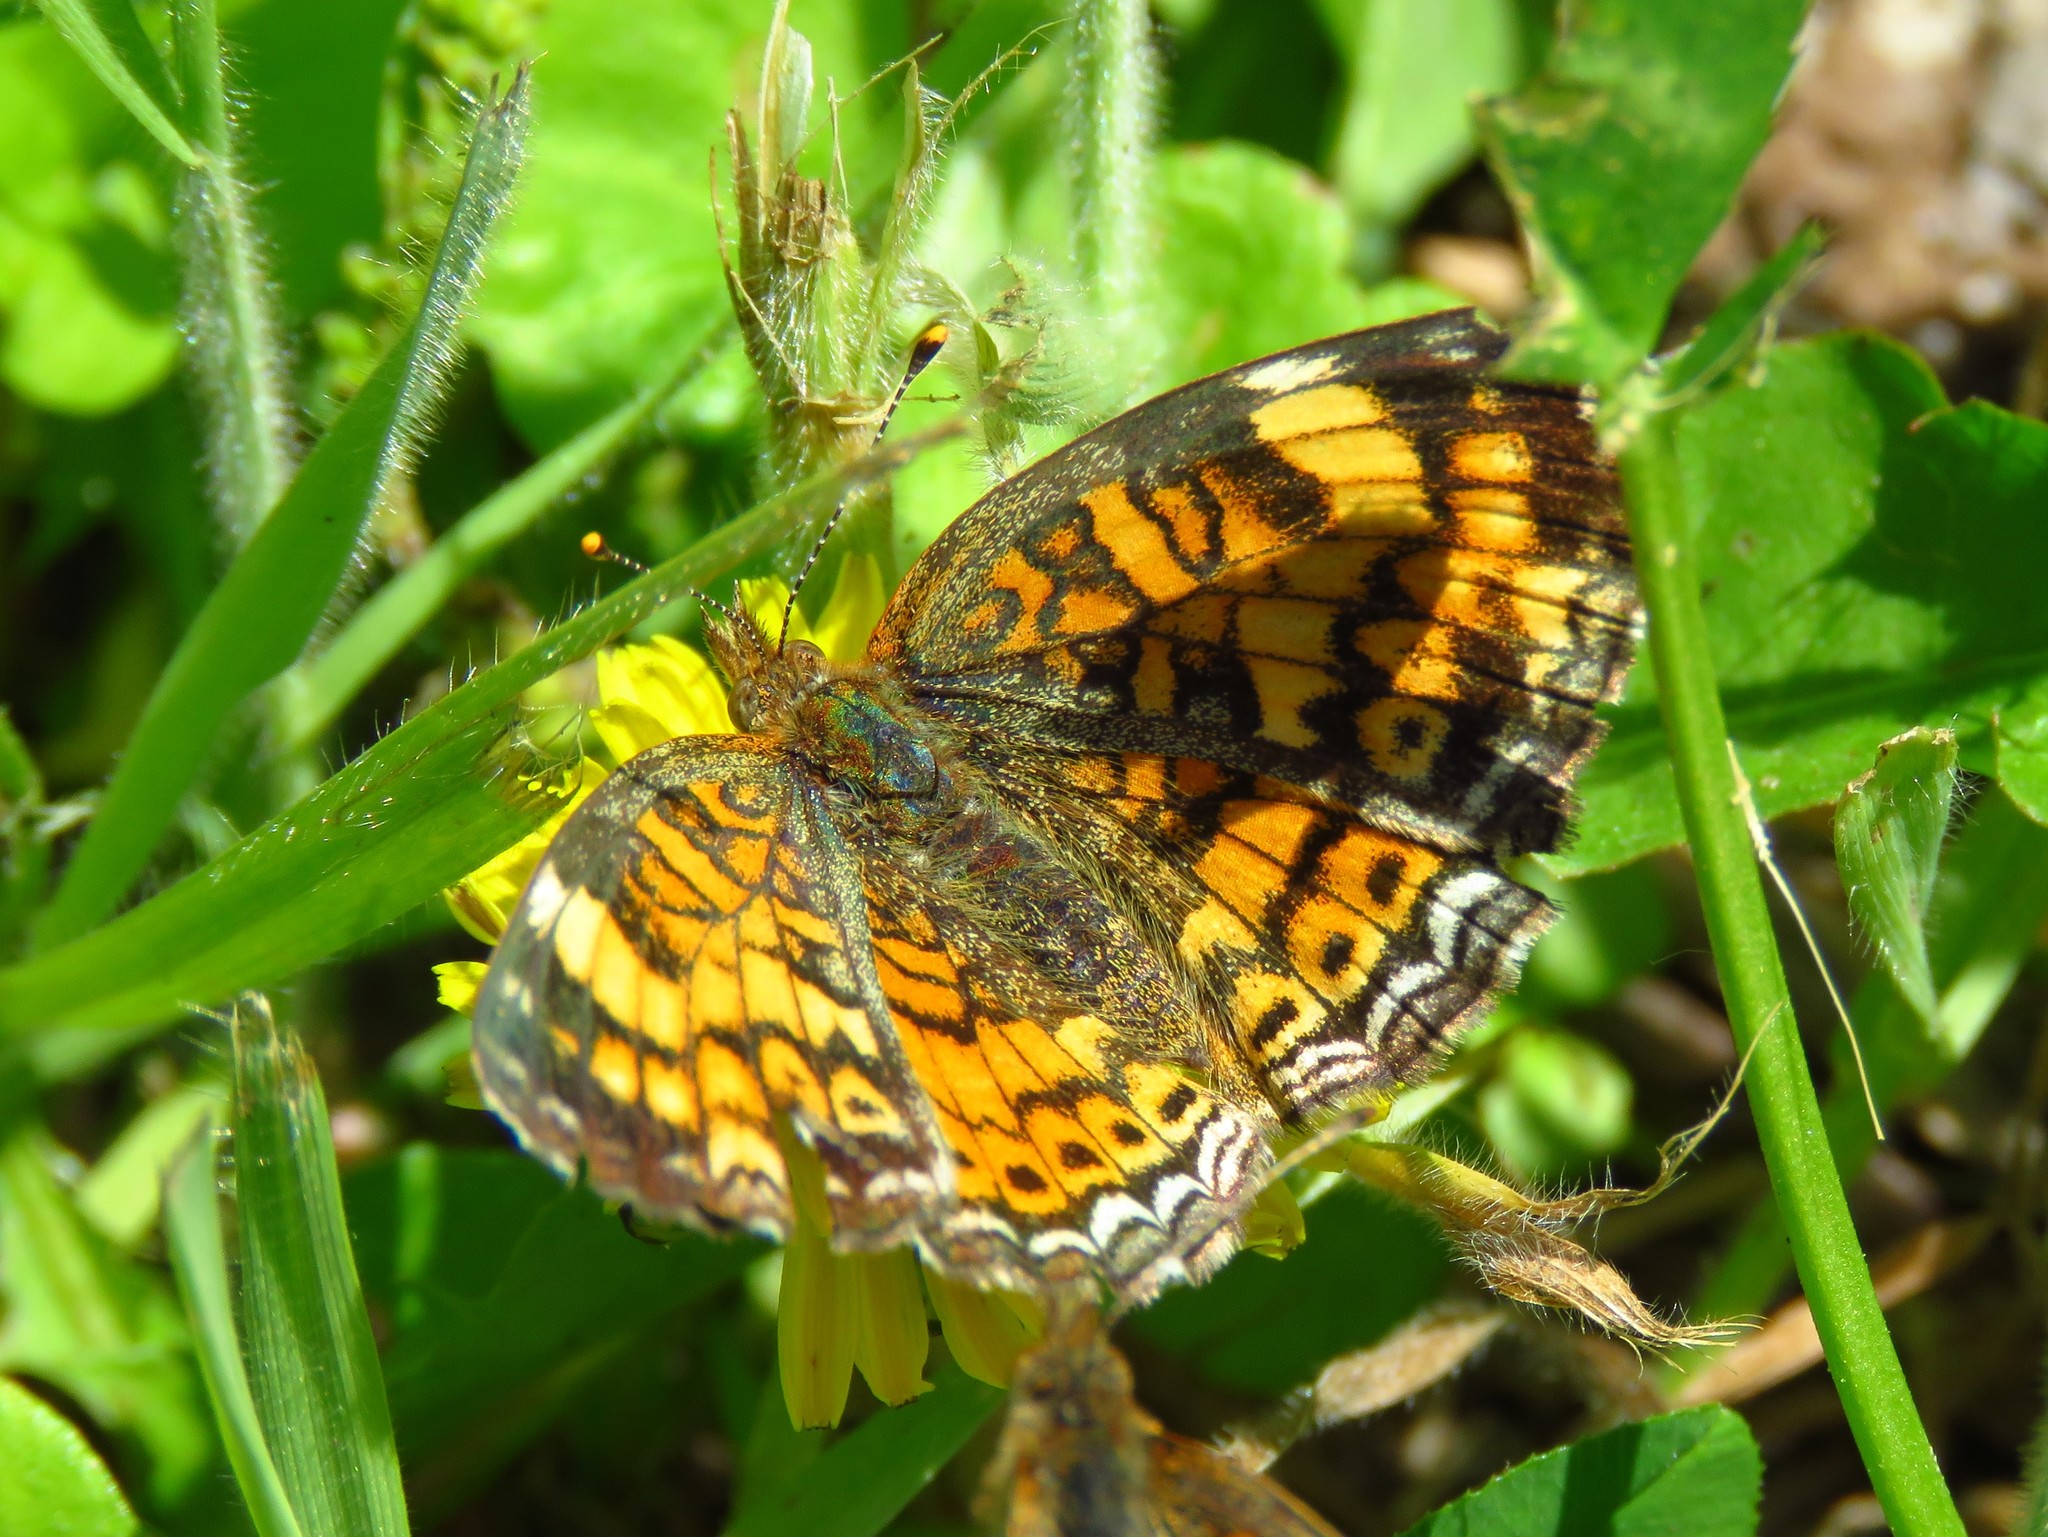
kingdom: Animalia
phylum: Arthropoda
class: Insecta
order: Lepidoptera
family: Nymphalidae
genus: Phyciodes
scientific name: Phyciodes tharos
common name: Pearl crescent
